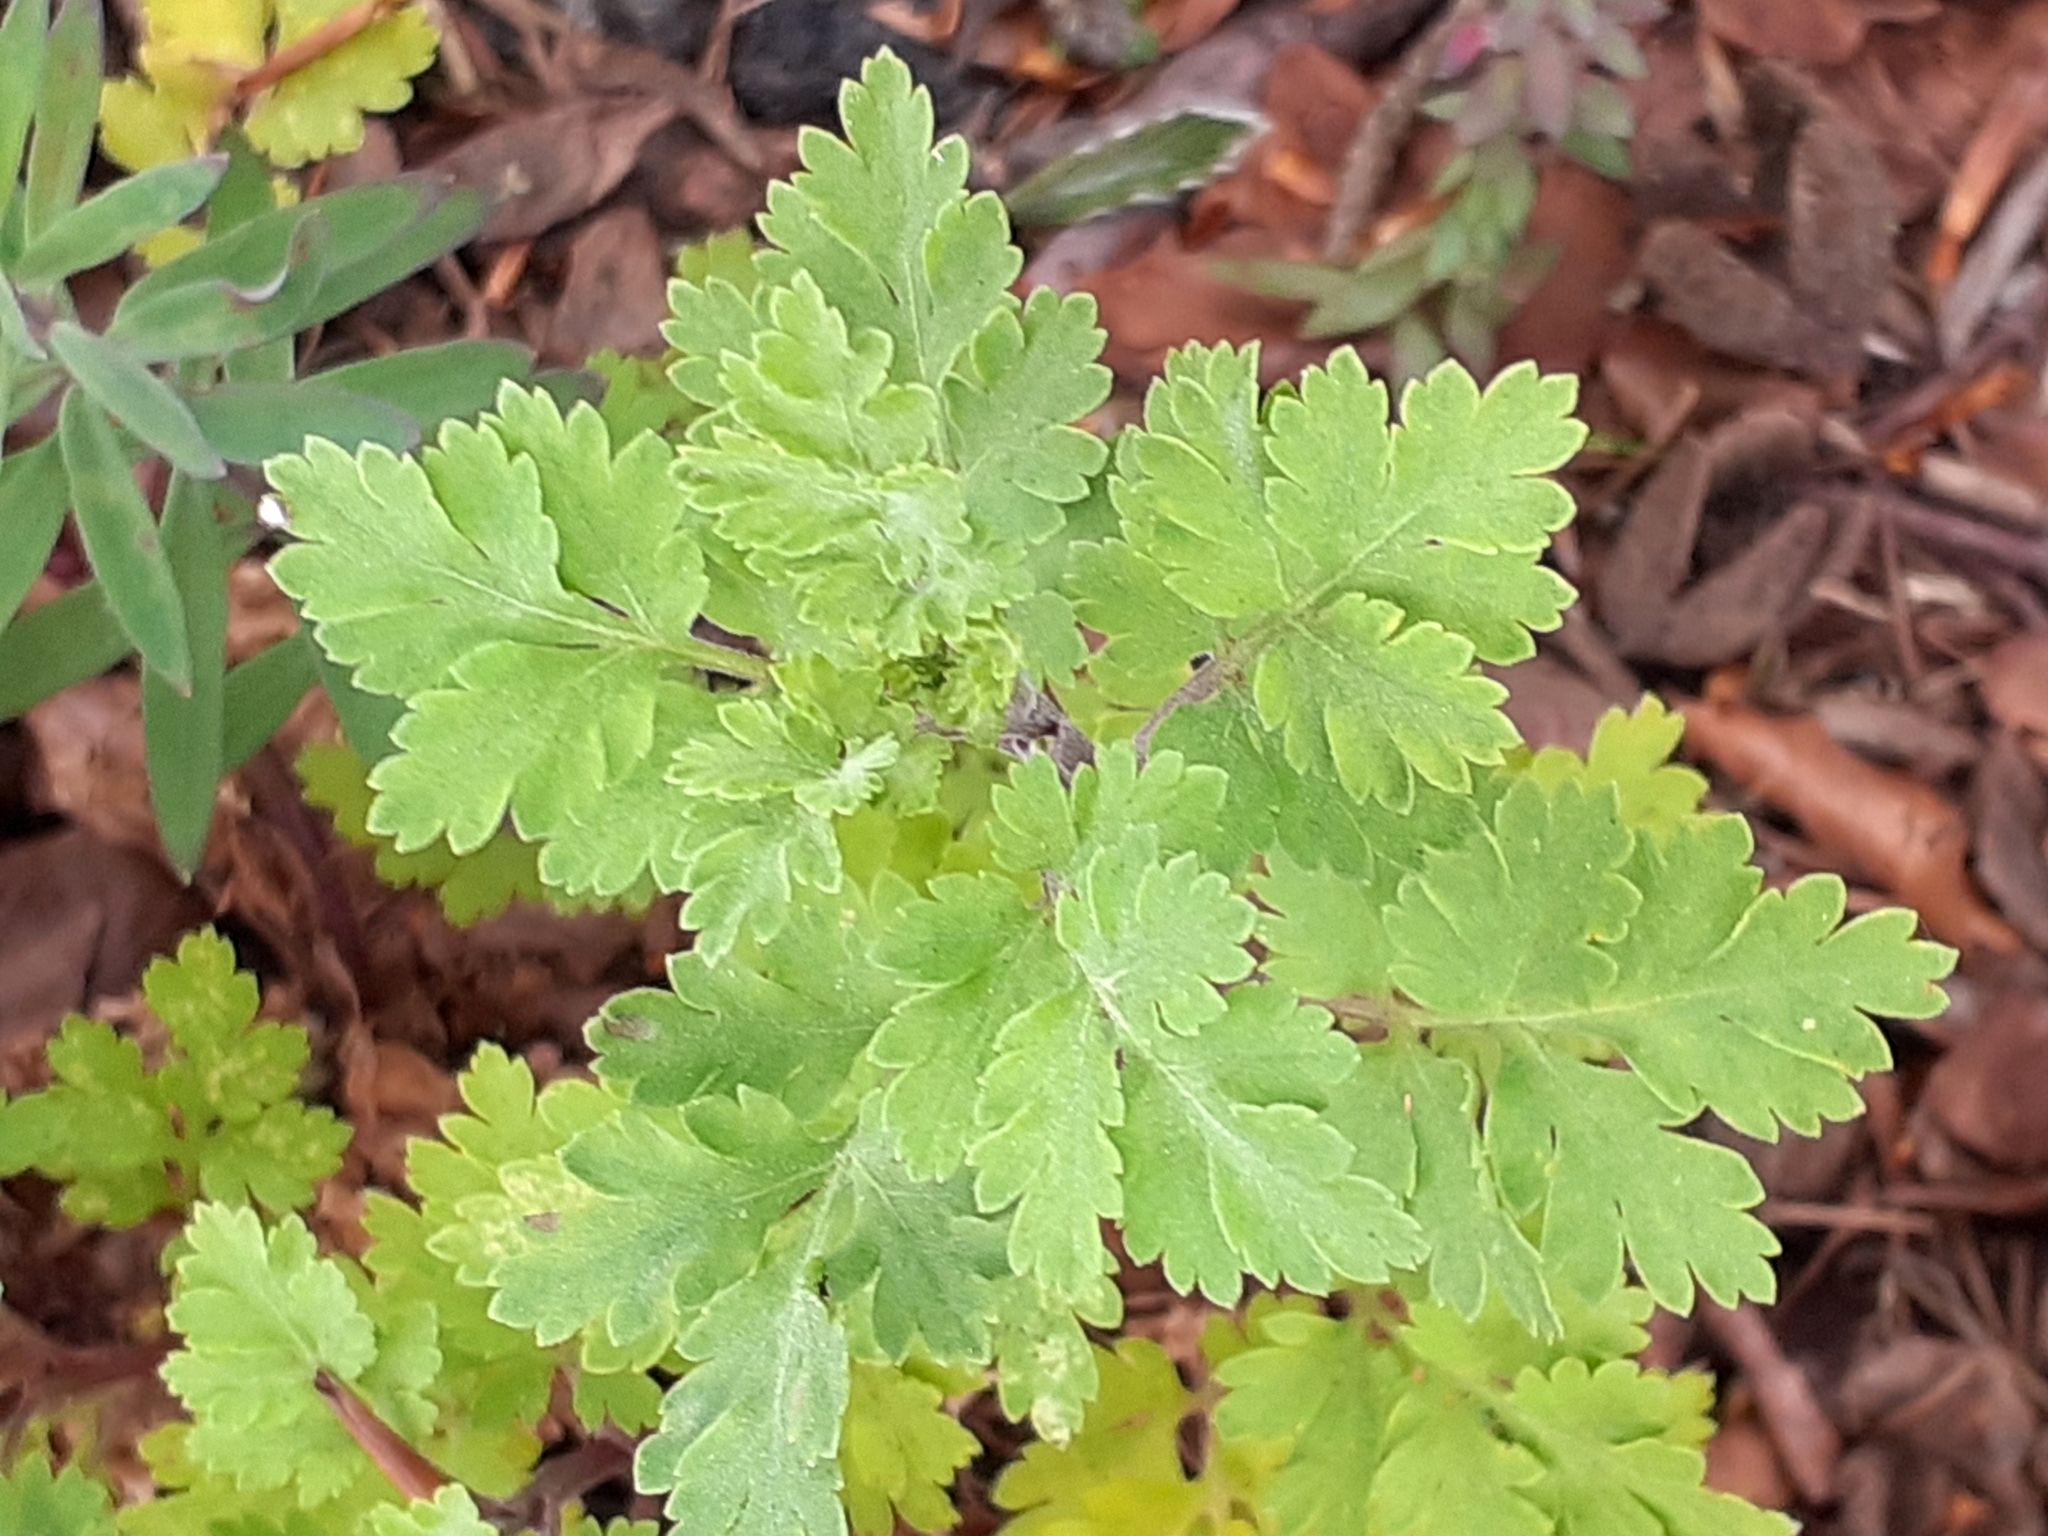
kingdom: Plantae
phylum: Tracheophyta
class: Magnoliopsida
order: Asterales
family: Asteraceae
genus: Tanacetum
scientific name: Tanacetum parthenium
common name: Feverfew
